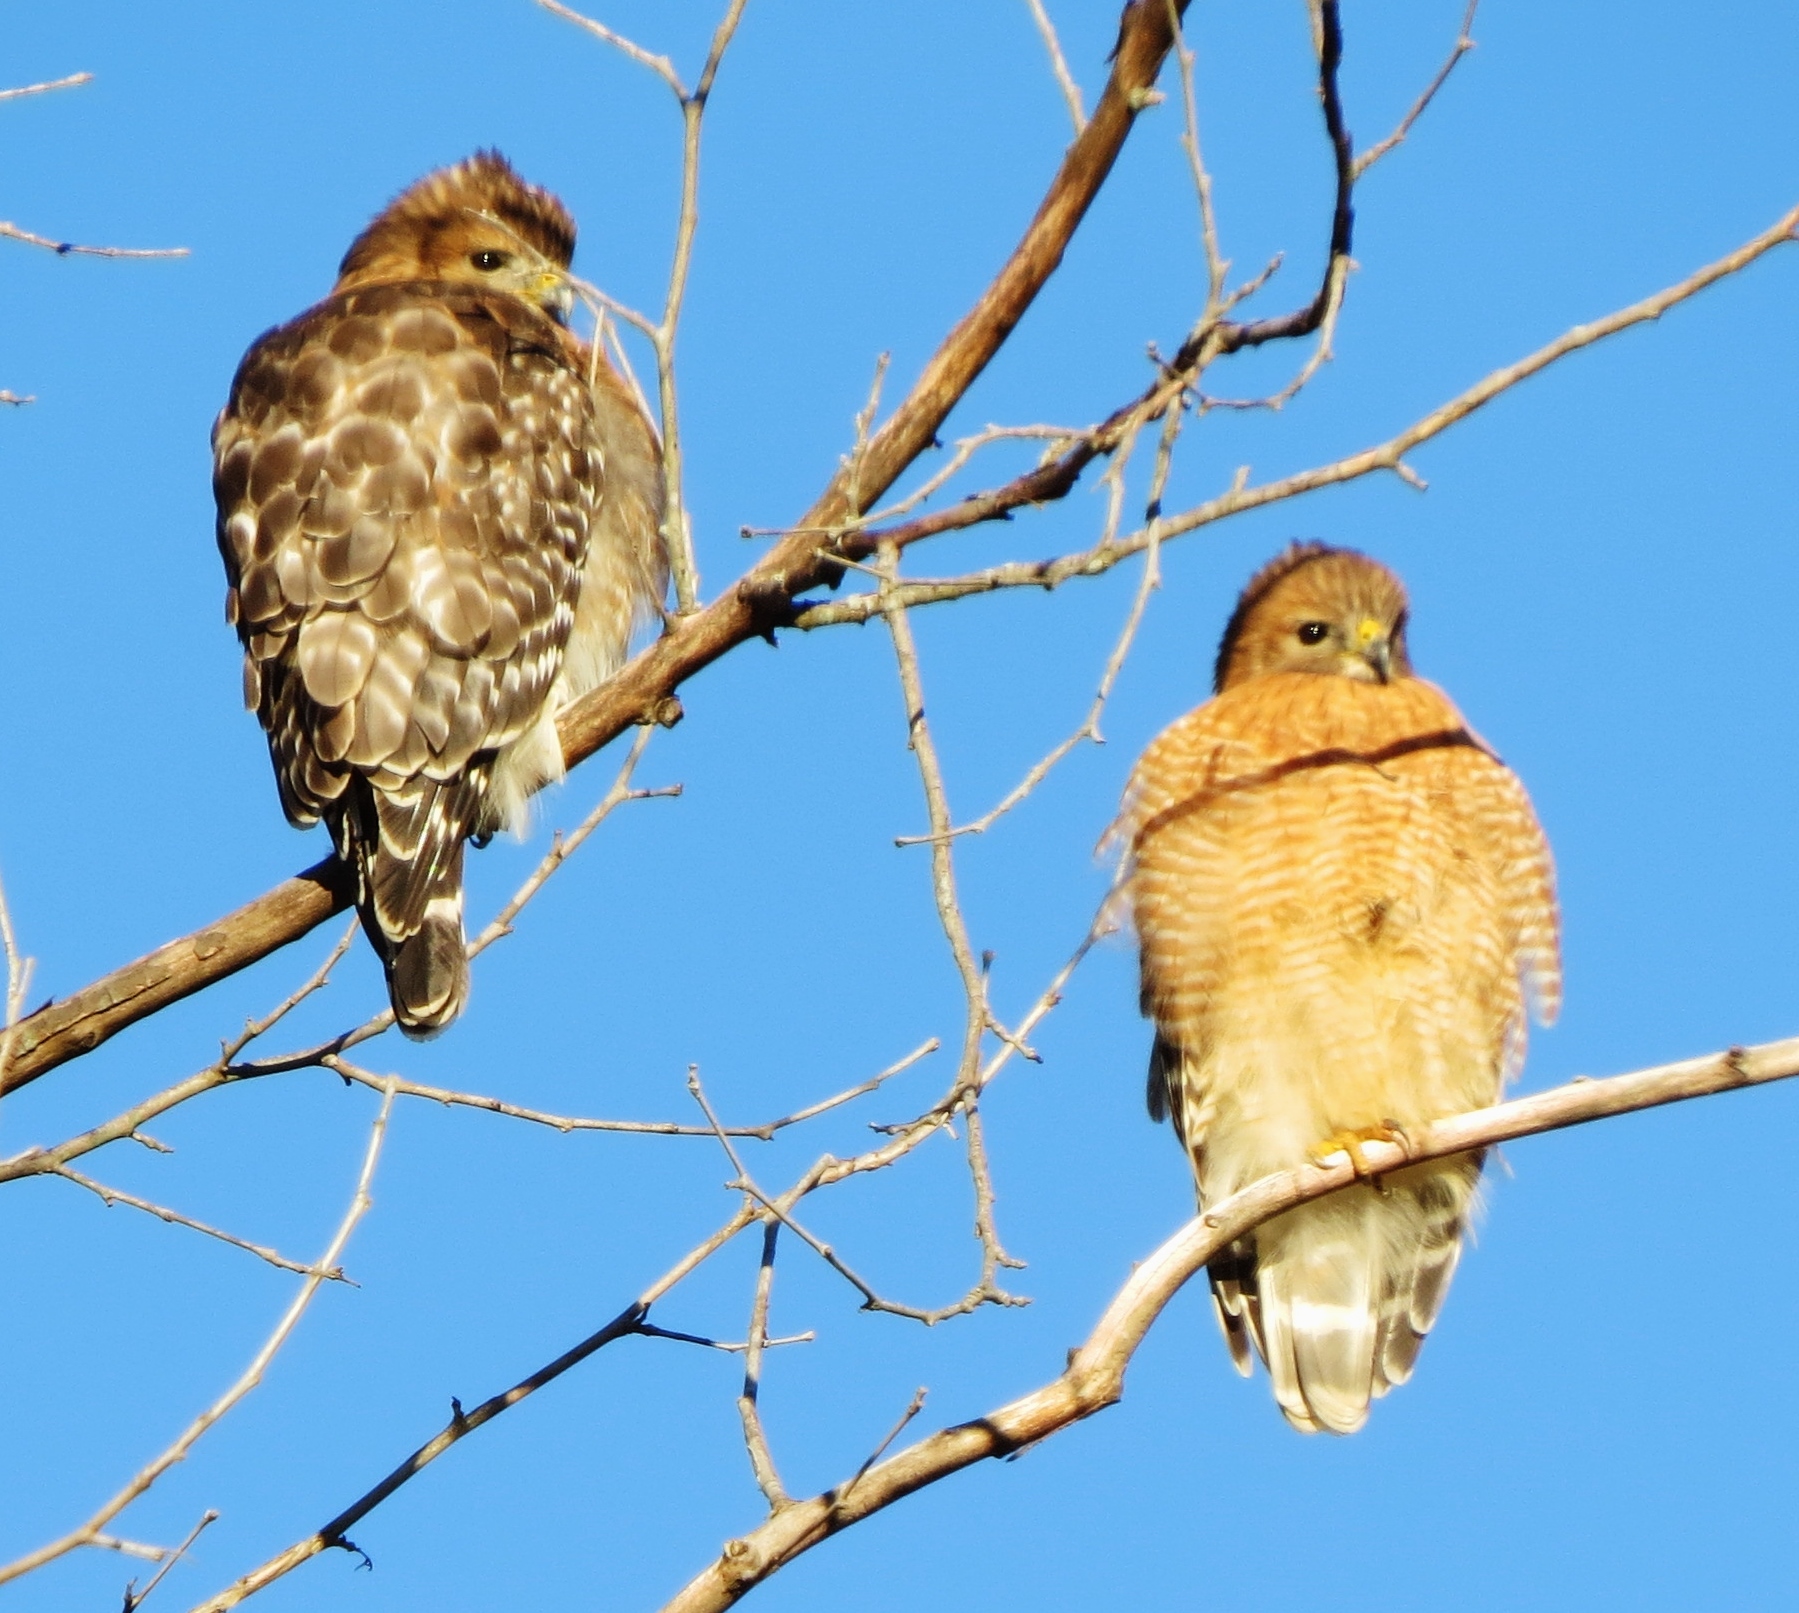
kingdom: Animalia
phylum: Chordata
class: Aves
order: Accipitriformes
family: Accipitridae
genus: Buteo
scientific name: Buteo lineatus
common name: Red-shouldered hawk
